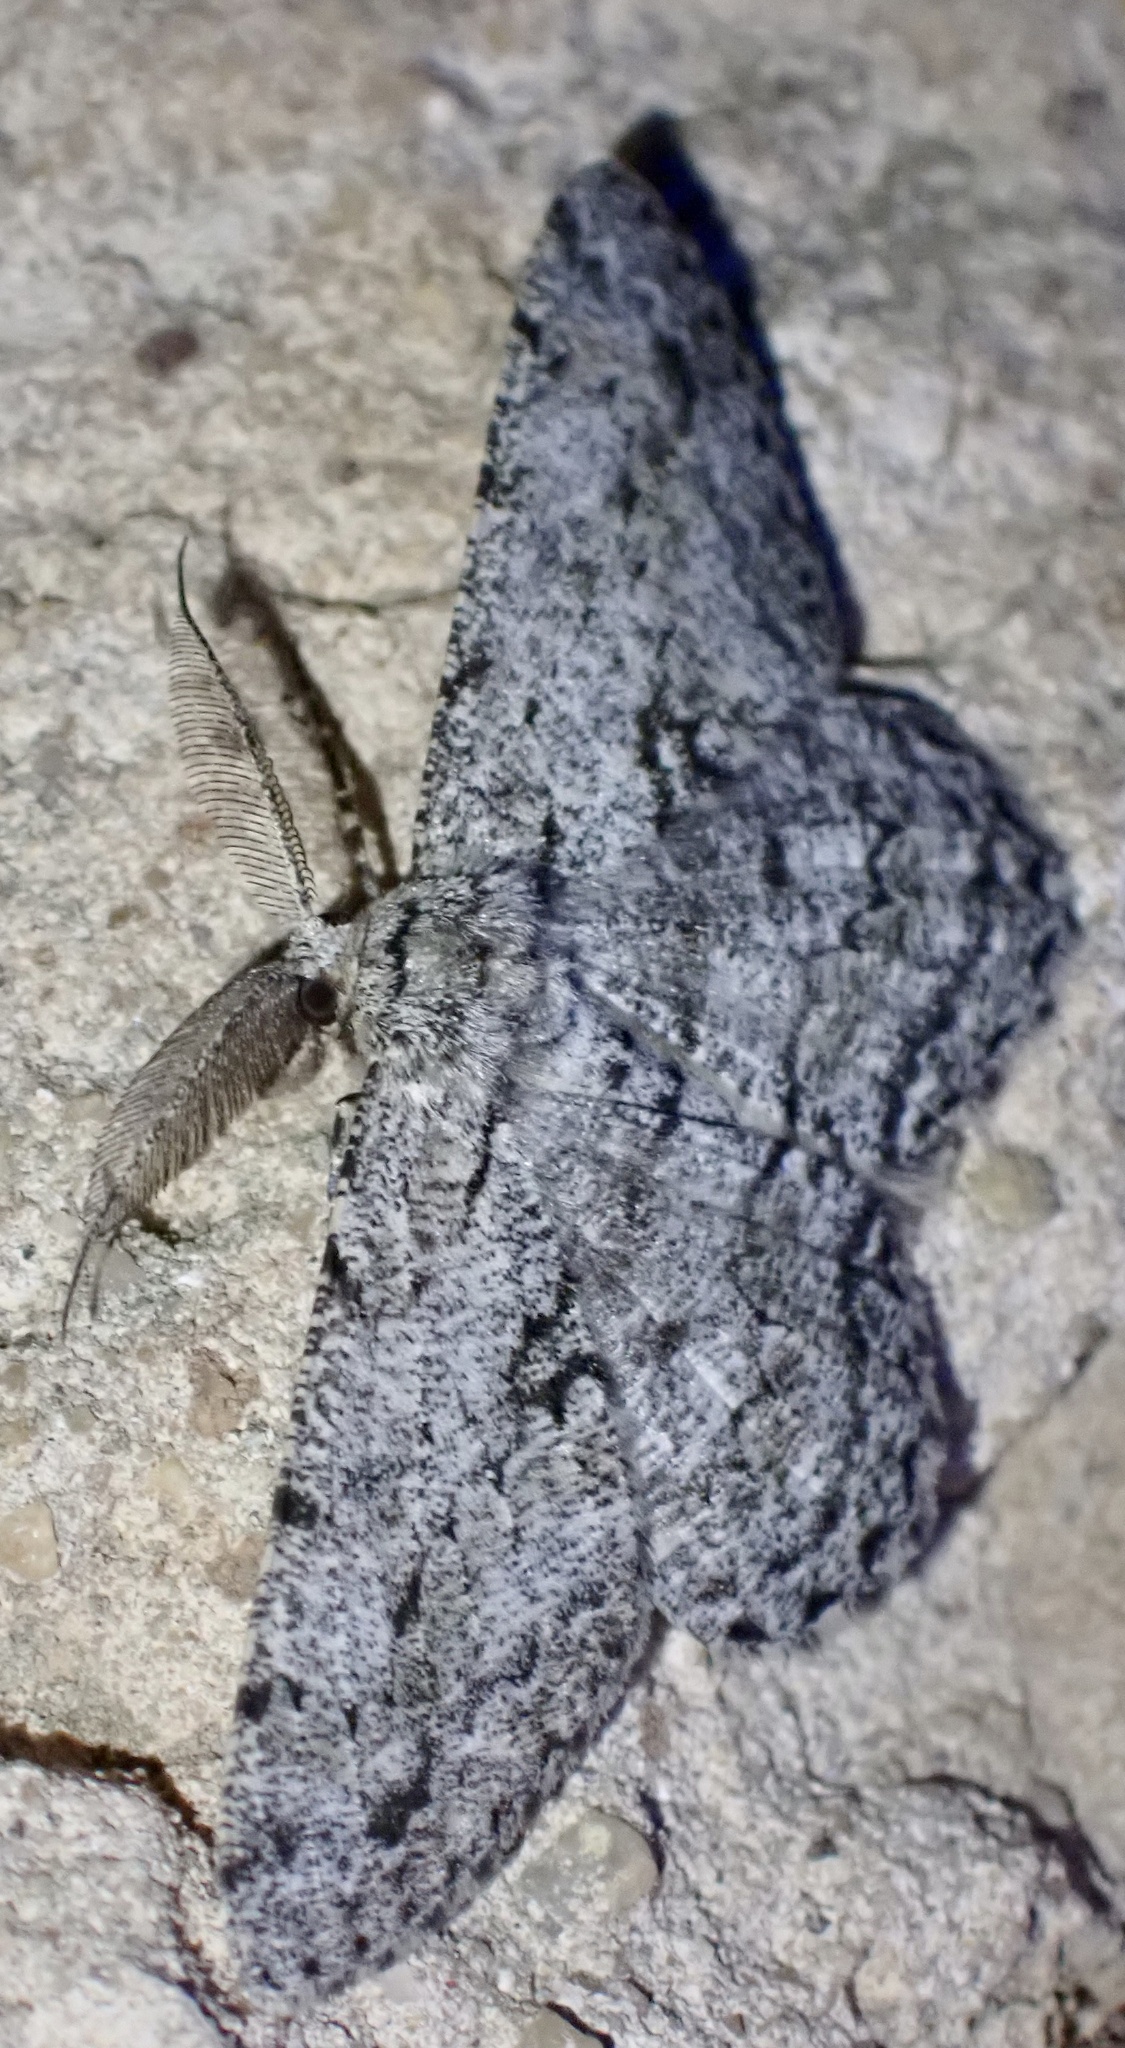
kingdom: Animalia
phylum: Arthropoda
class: Insecta
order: Lepidoptera
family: Geometridae
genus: Hypomecis
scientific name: Hypomecis roboraria
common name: Great oak beauty
